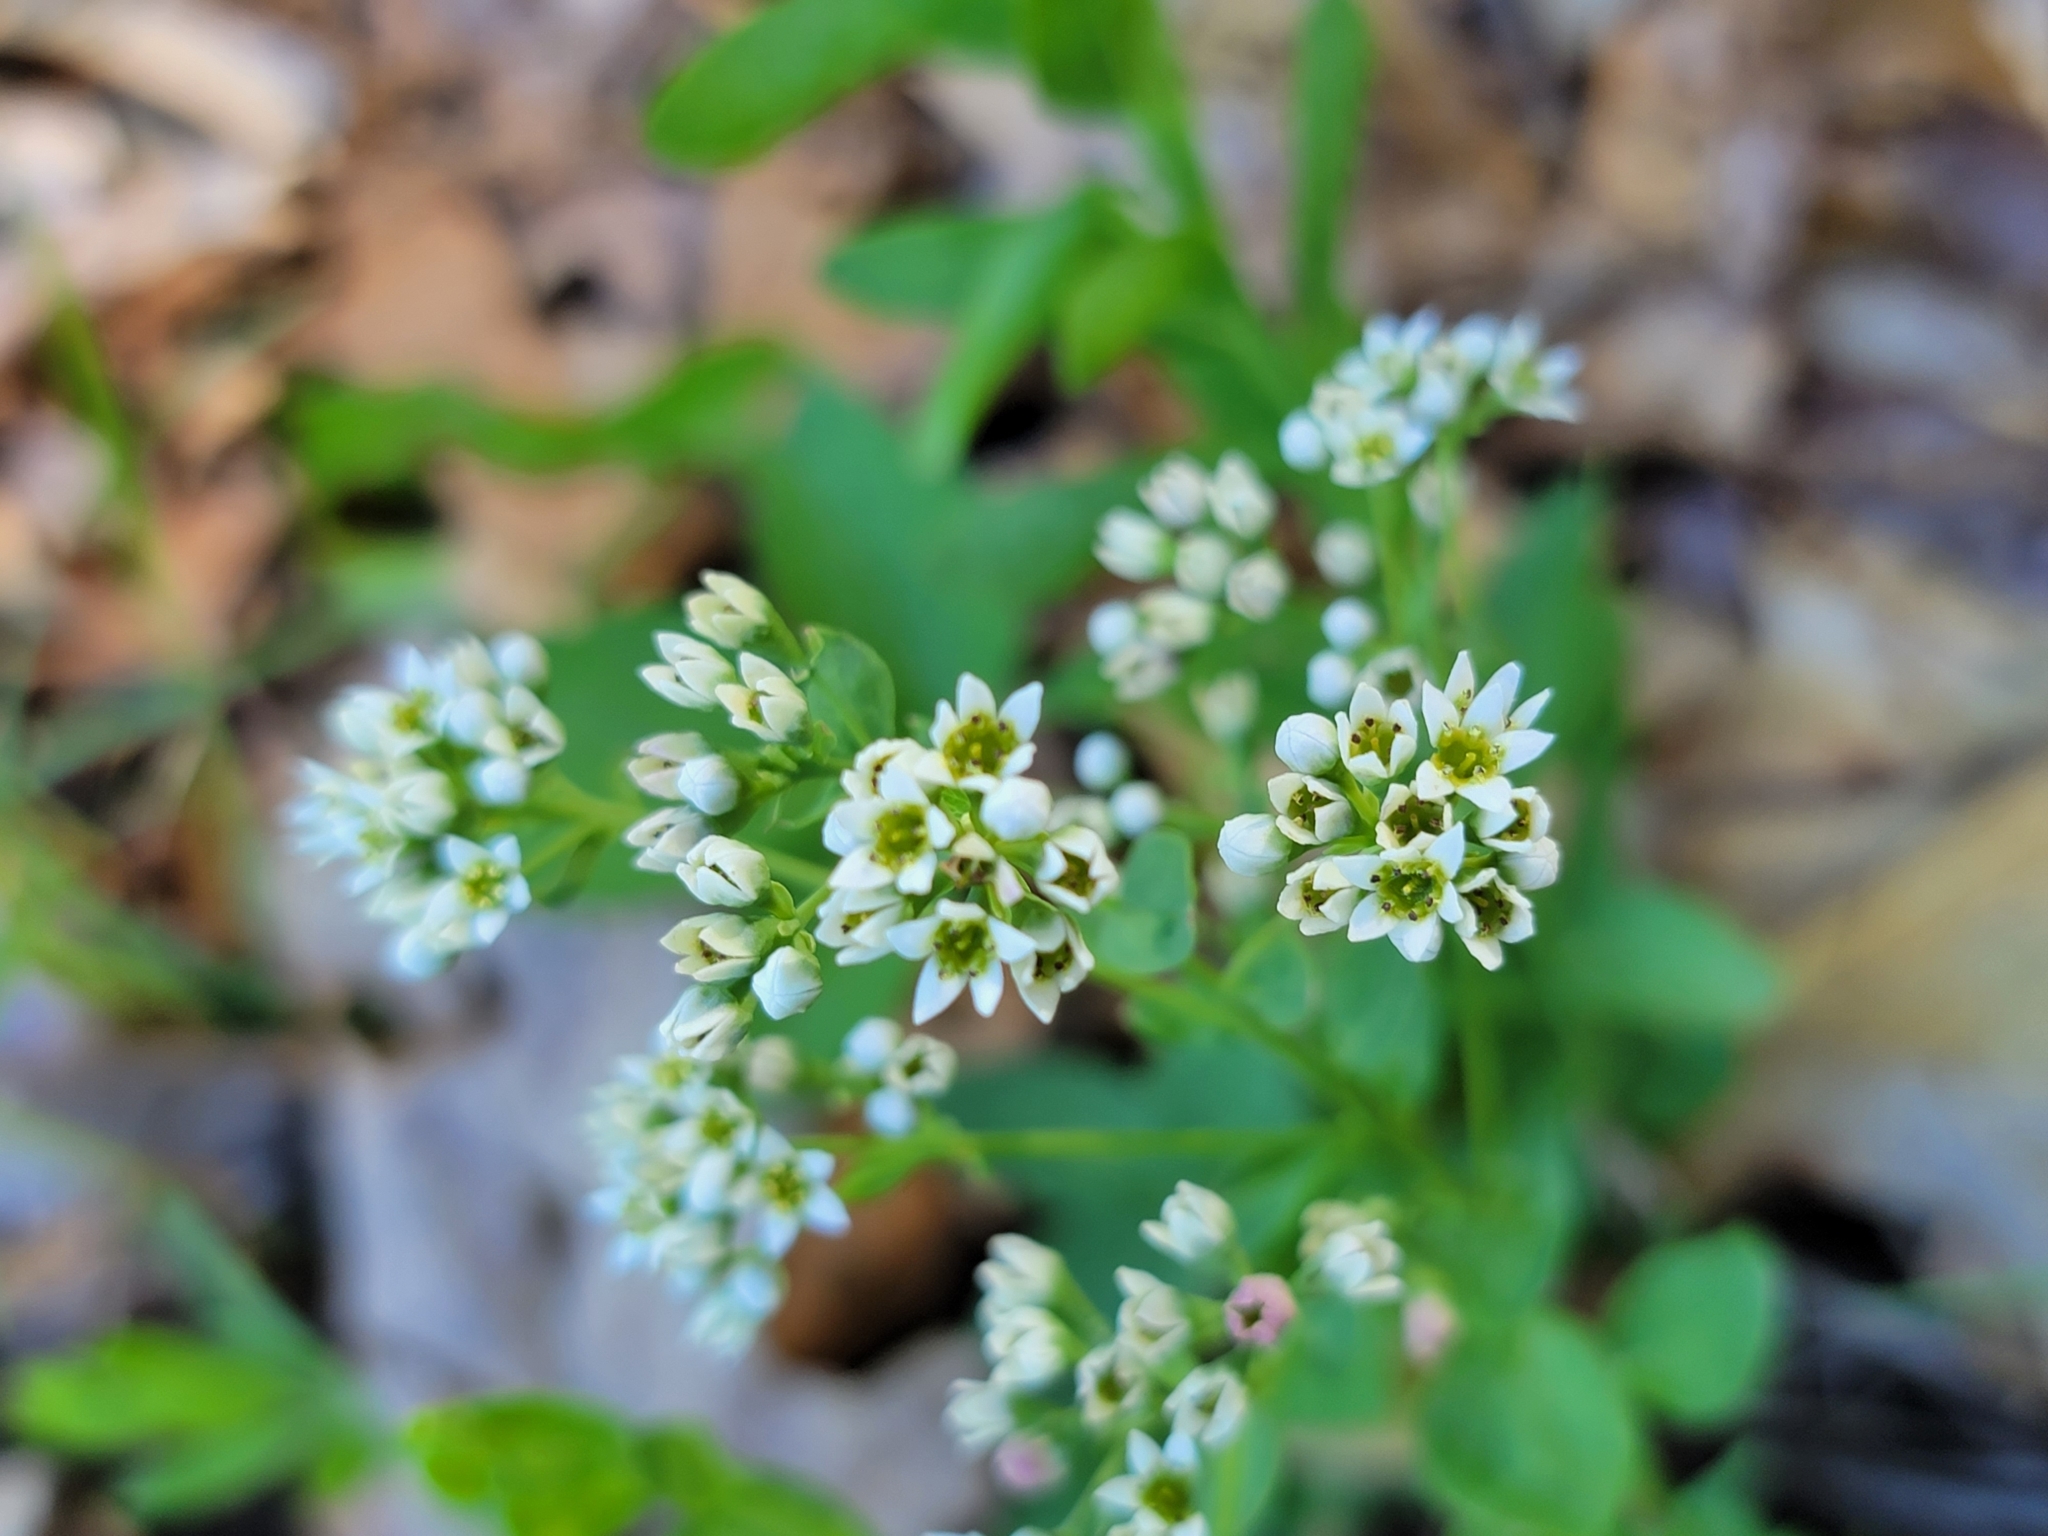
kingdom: Plantae
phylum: Tracheophyta
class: Magnoliopsida
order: Santalales
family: Comandraceae
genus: Comandra
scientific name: Comandra umbellata
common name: Bastard toadflax
